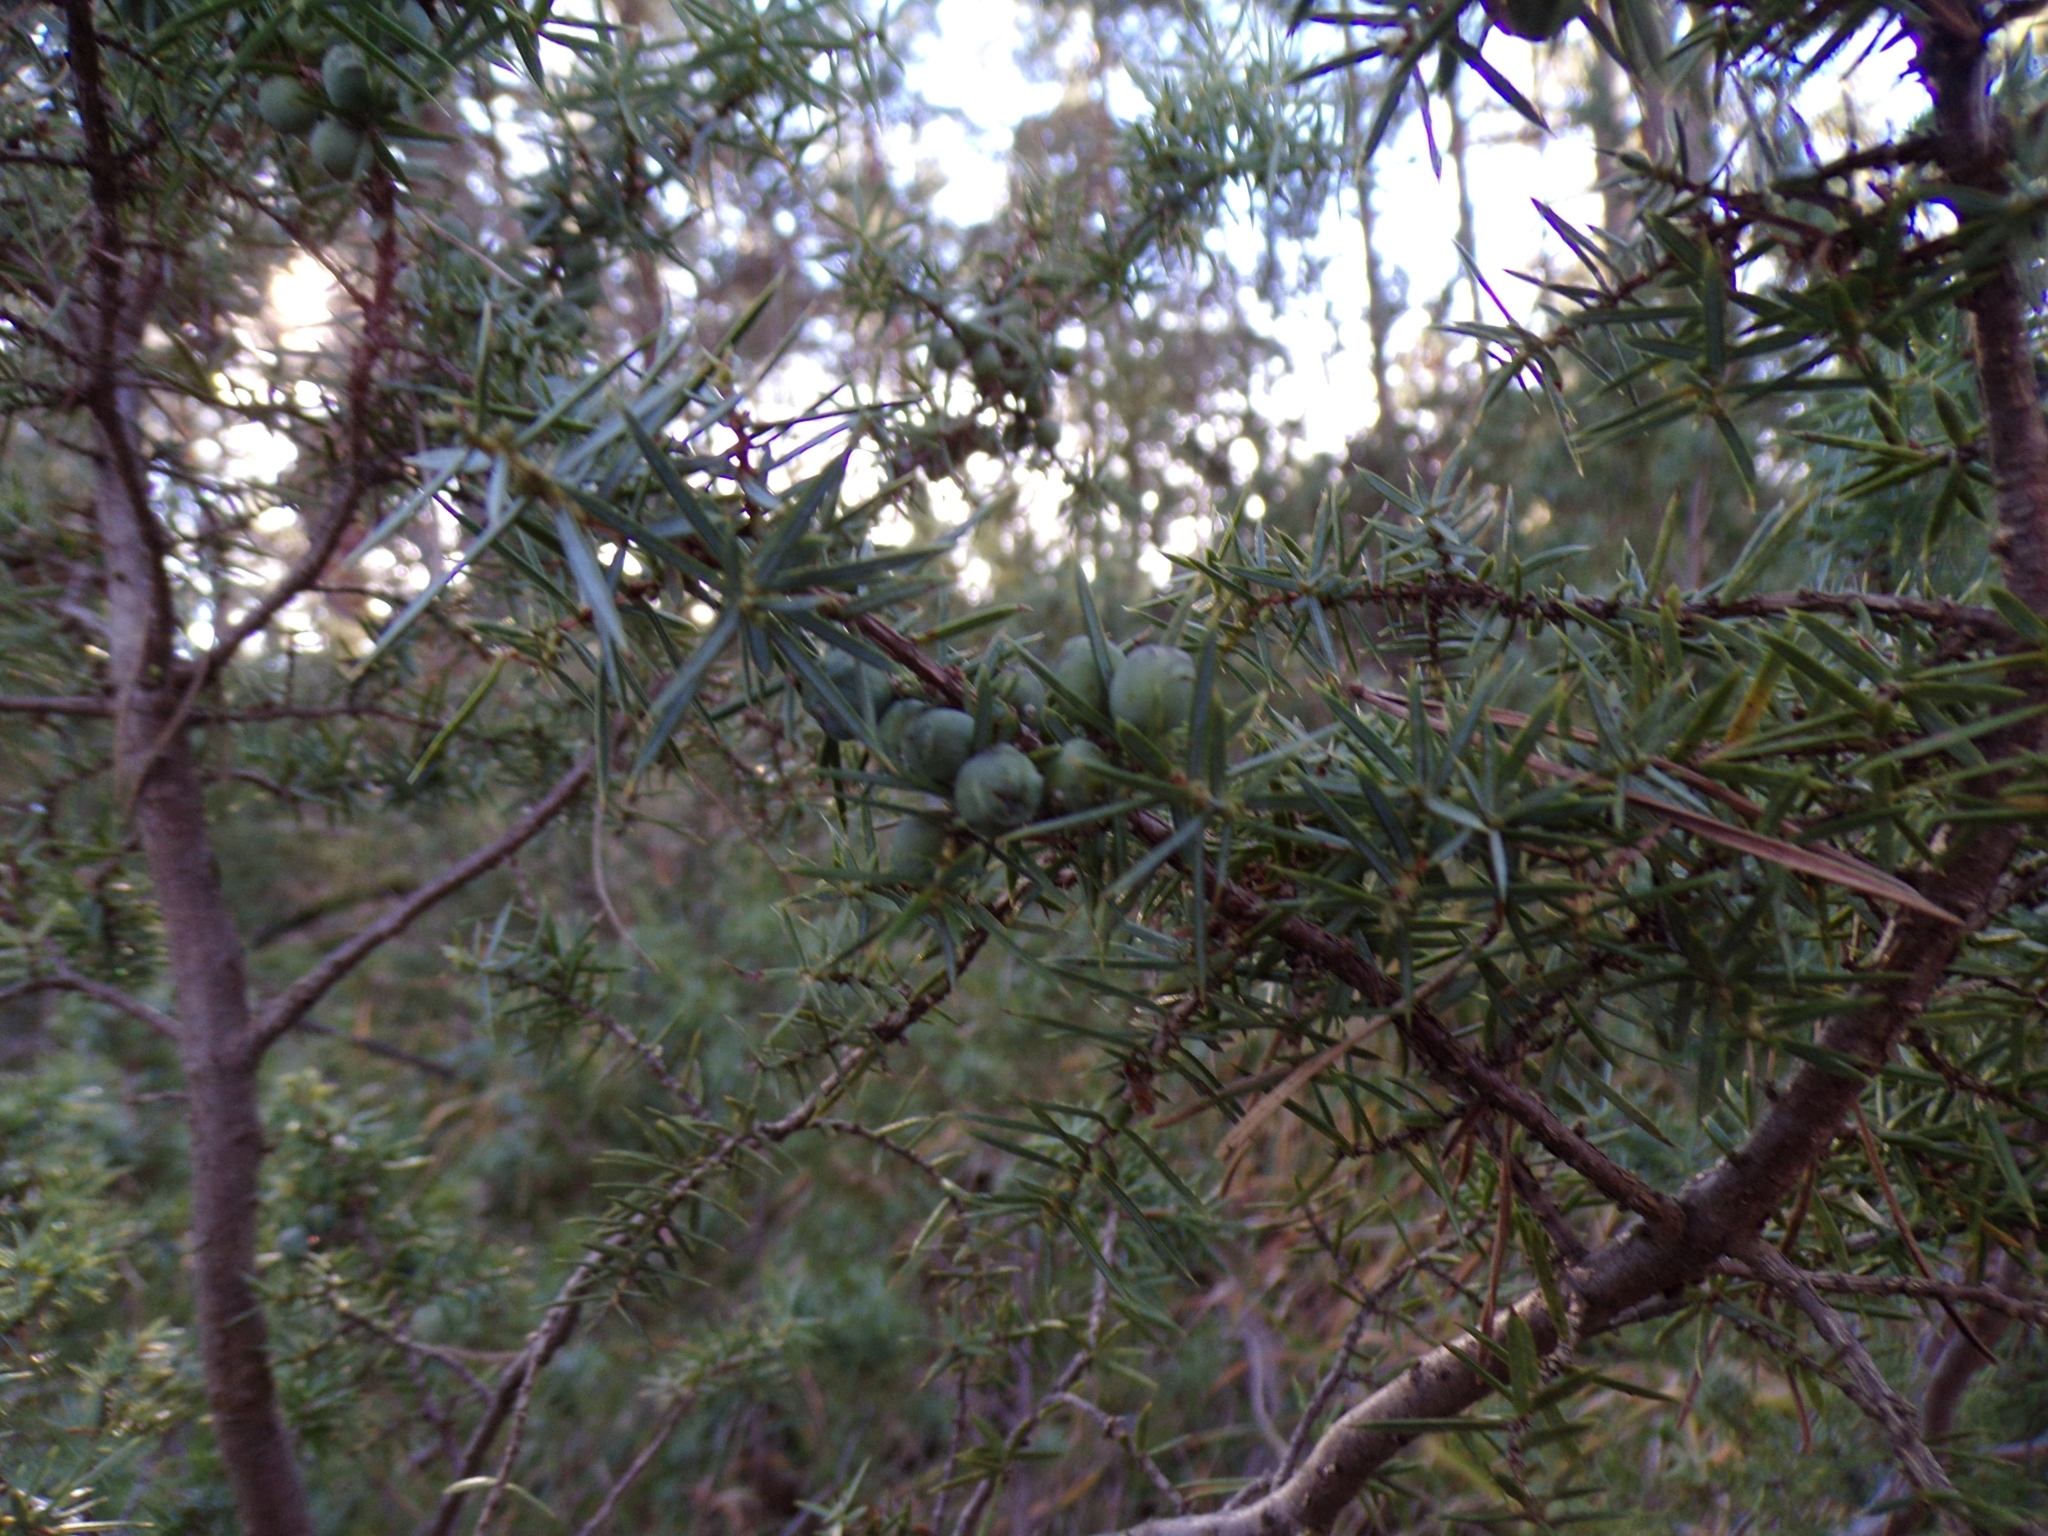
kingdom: Plantae
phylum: Tracheophyta
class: Pinopsida
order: Pinales
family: Cupressaceae
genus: Juniperus
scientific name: Juniperus communis
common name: Common juniper
